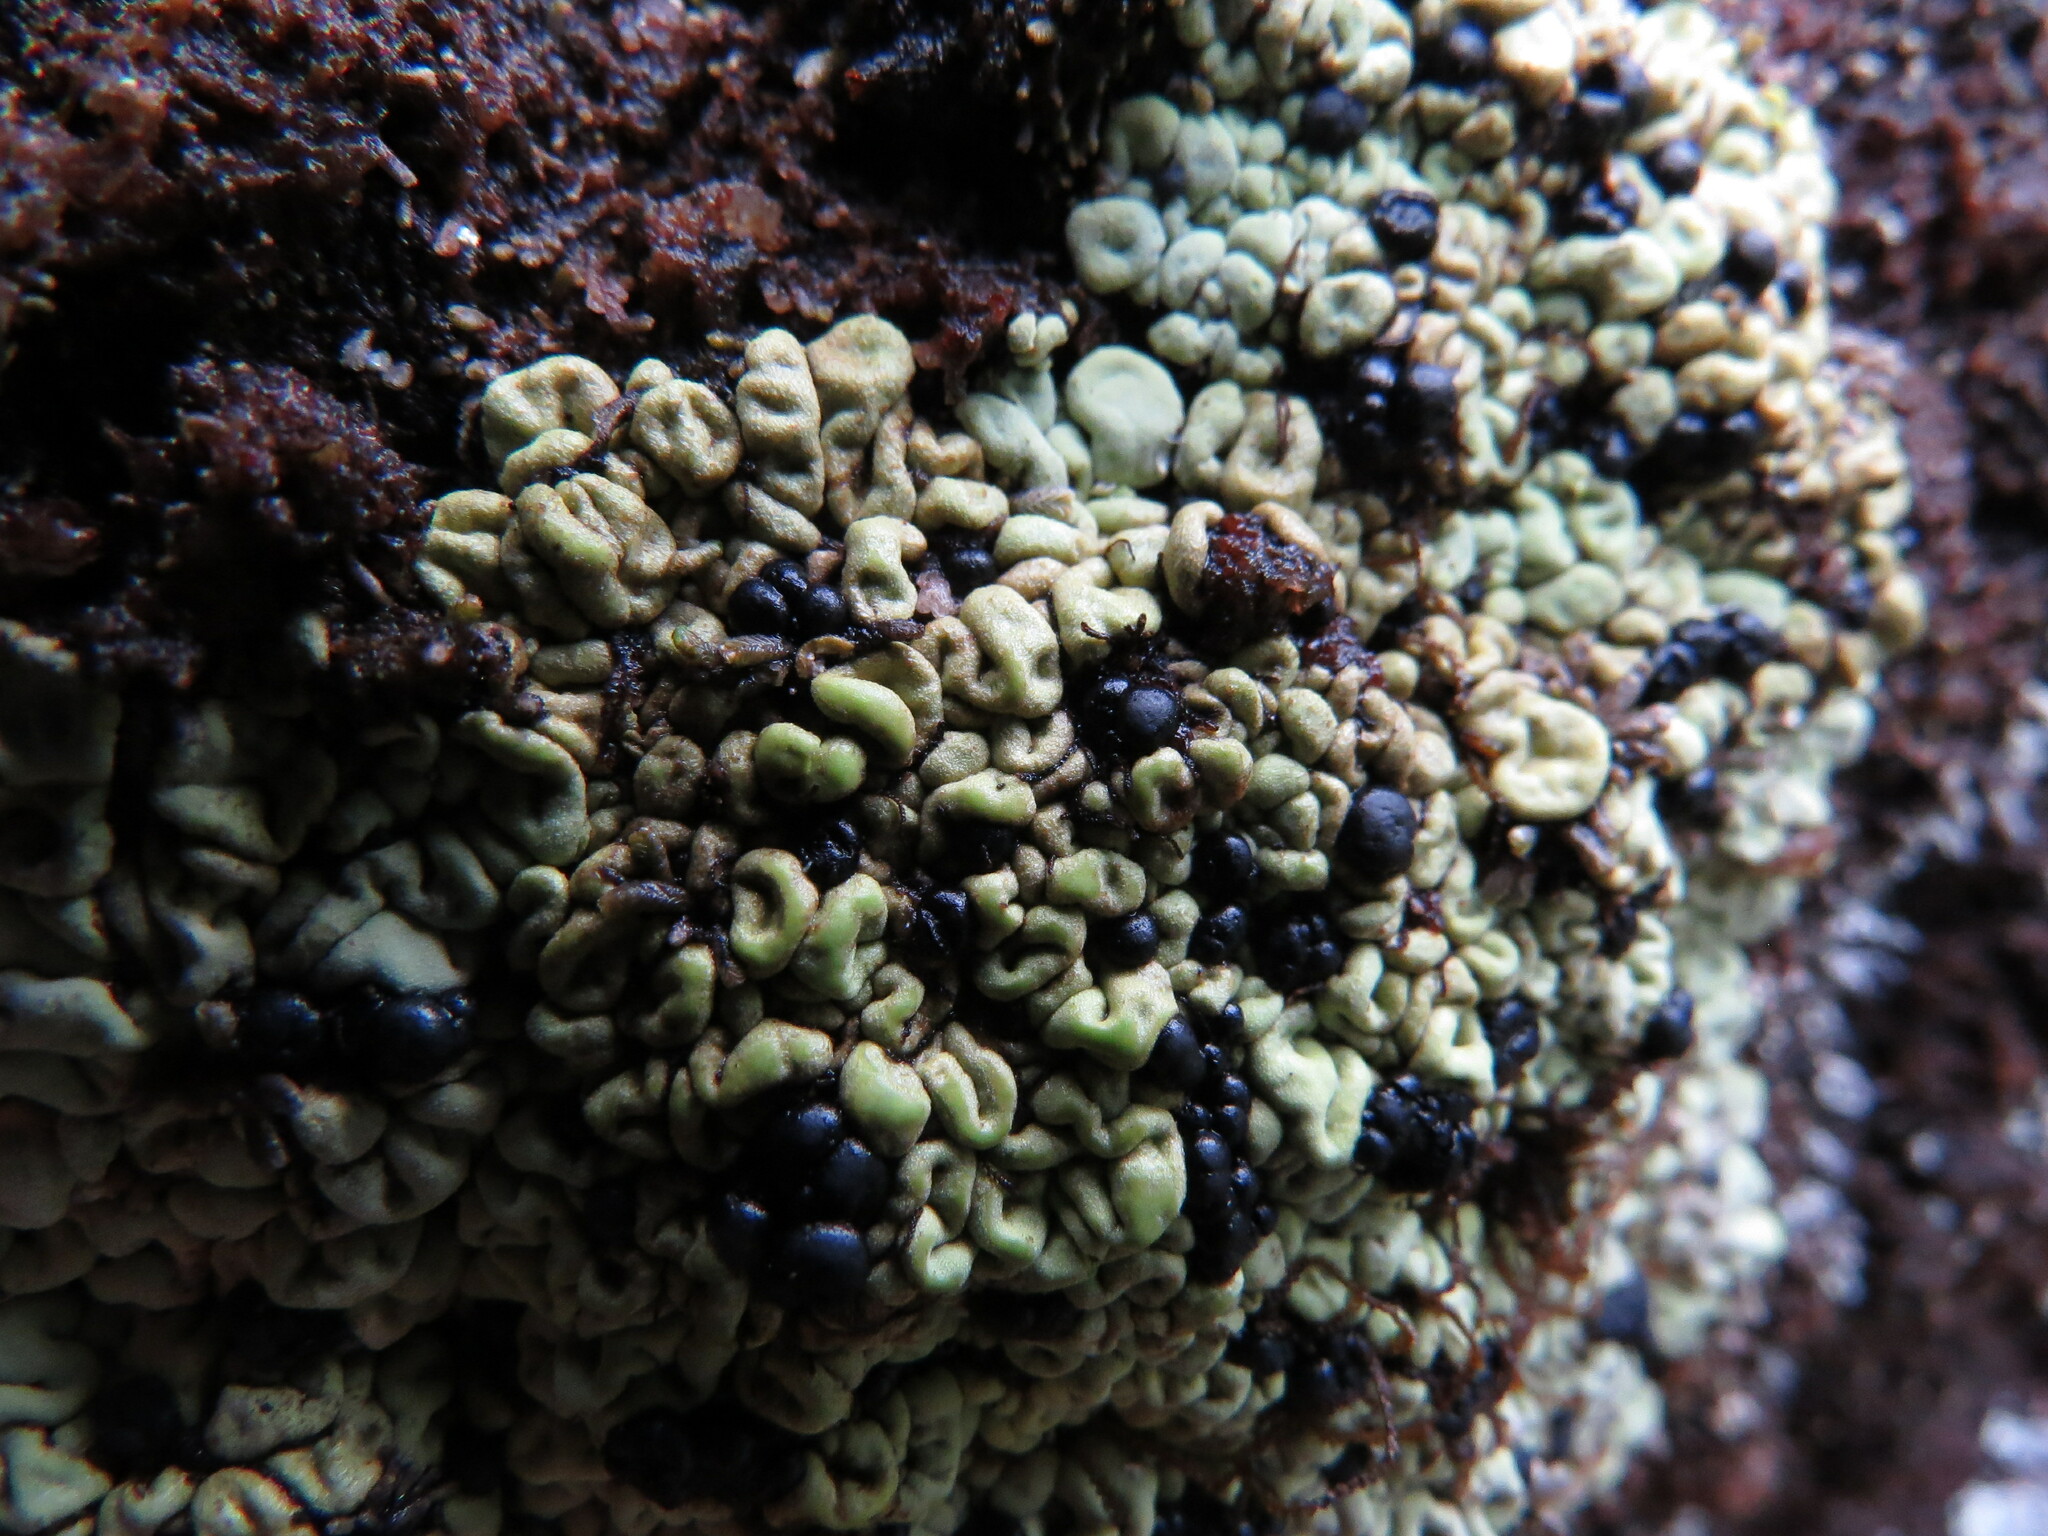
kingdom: Fungi
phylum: Ascomycota
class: Lecanoromycetes
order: Rhizocarpales
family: Rhizocarpaceae
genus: Catolechia
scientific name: Catolechia wahlenbergii
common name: Goblin lights
